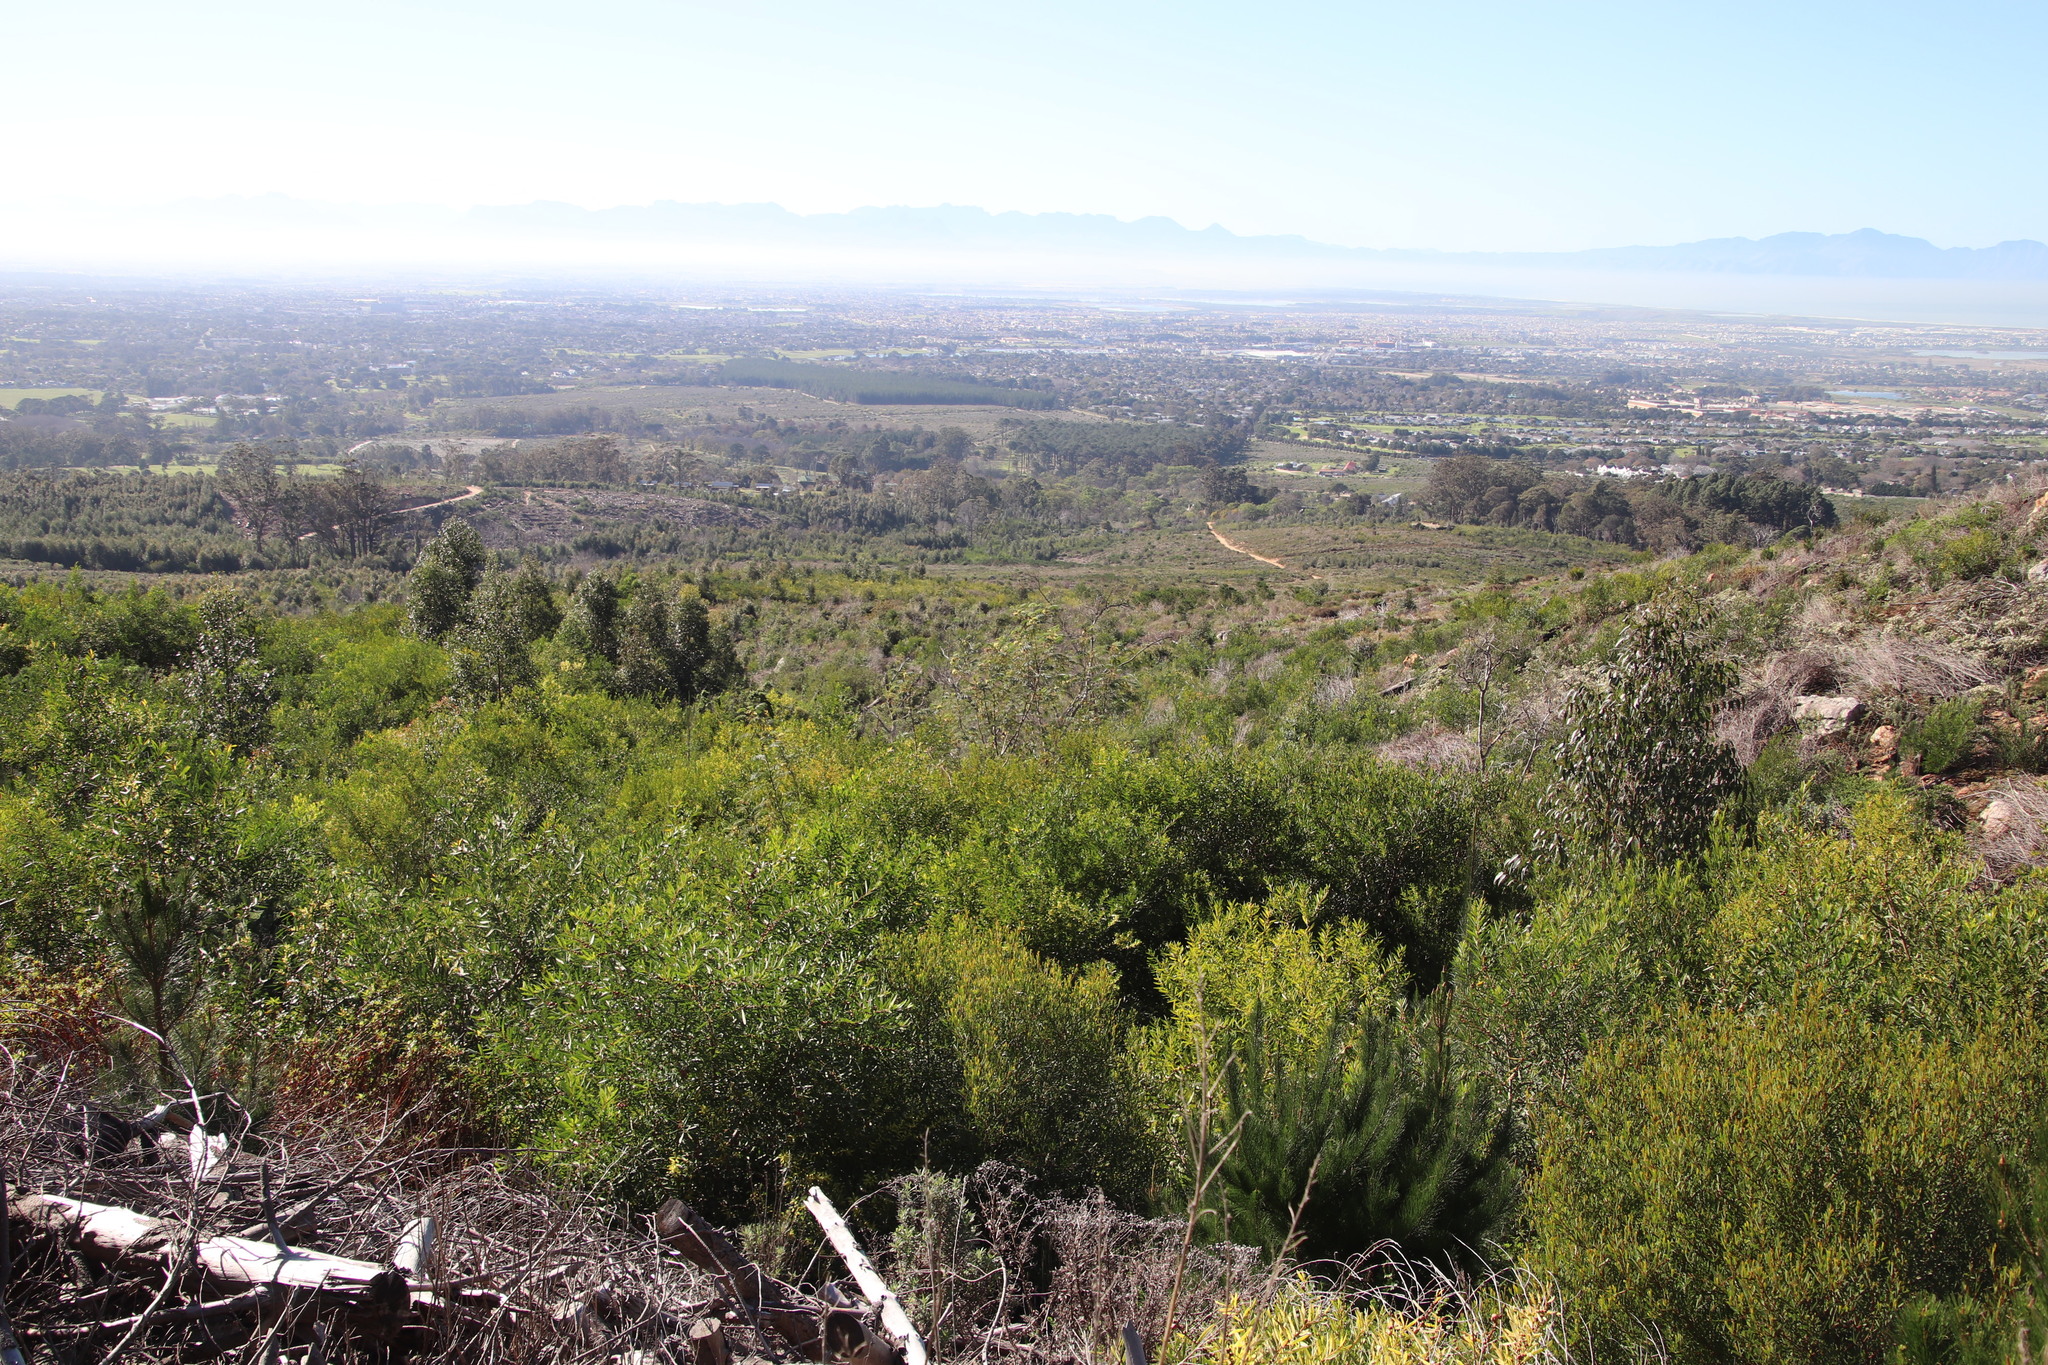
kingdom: Plantae
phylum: Tracheophyta
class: Magnoliopsida
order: Fabales
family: Fabaceae
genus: Acacia
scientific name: Acacia longifolia
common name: Sydney golden wattle
